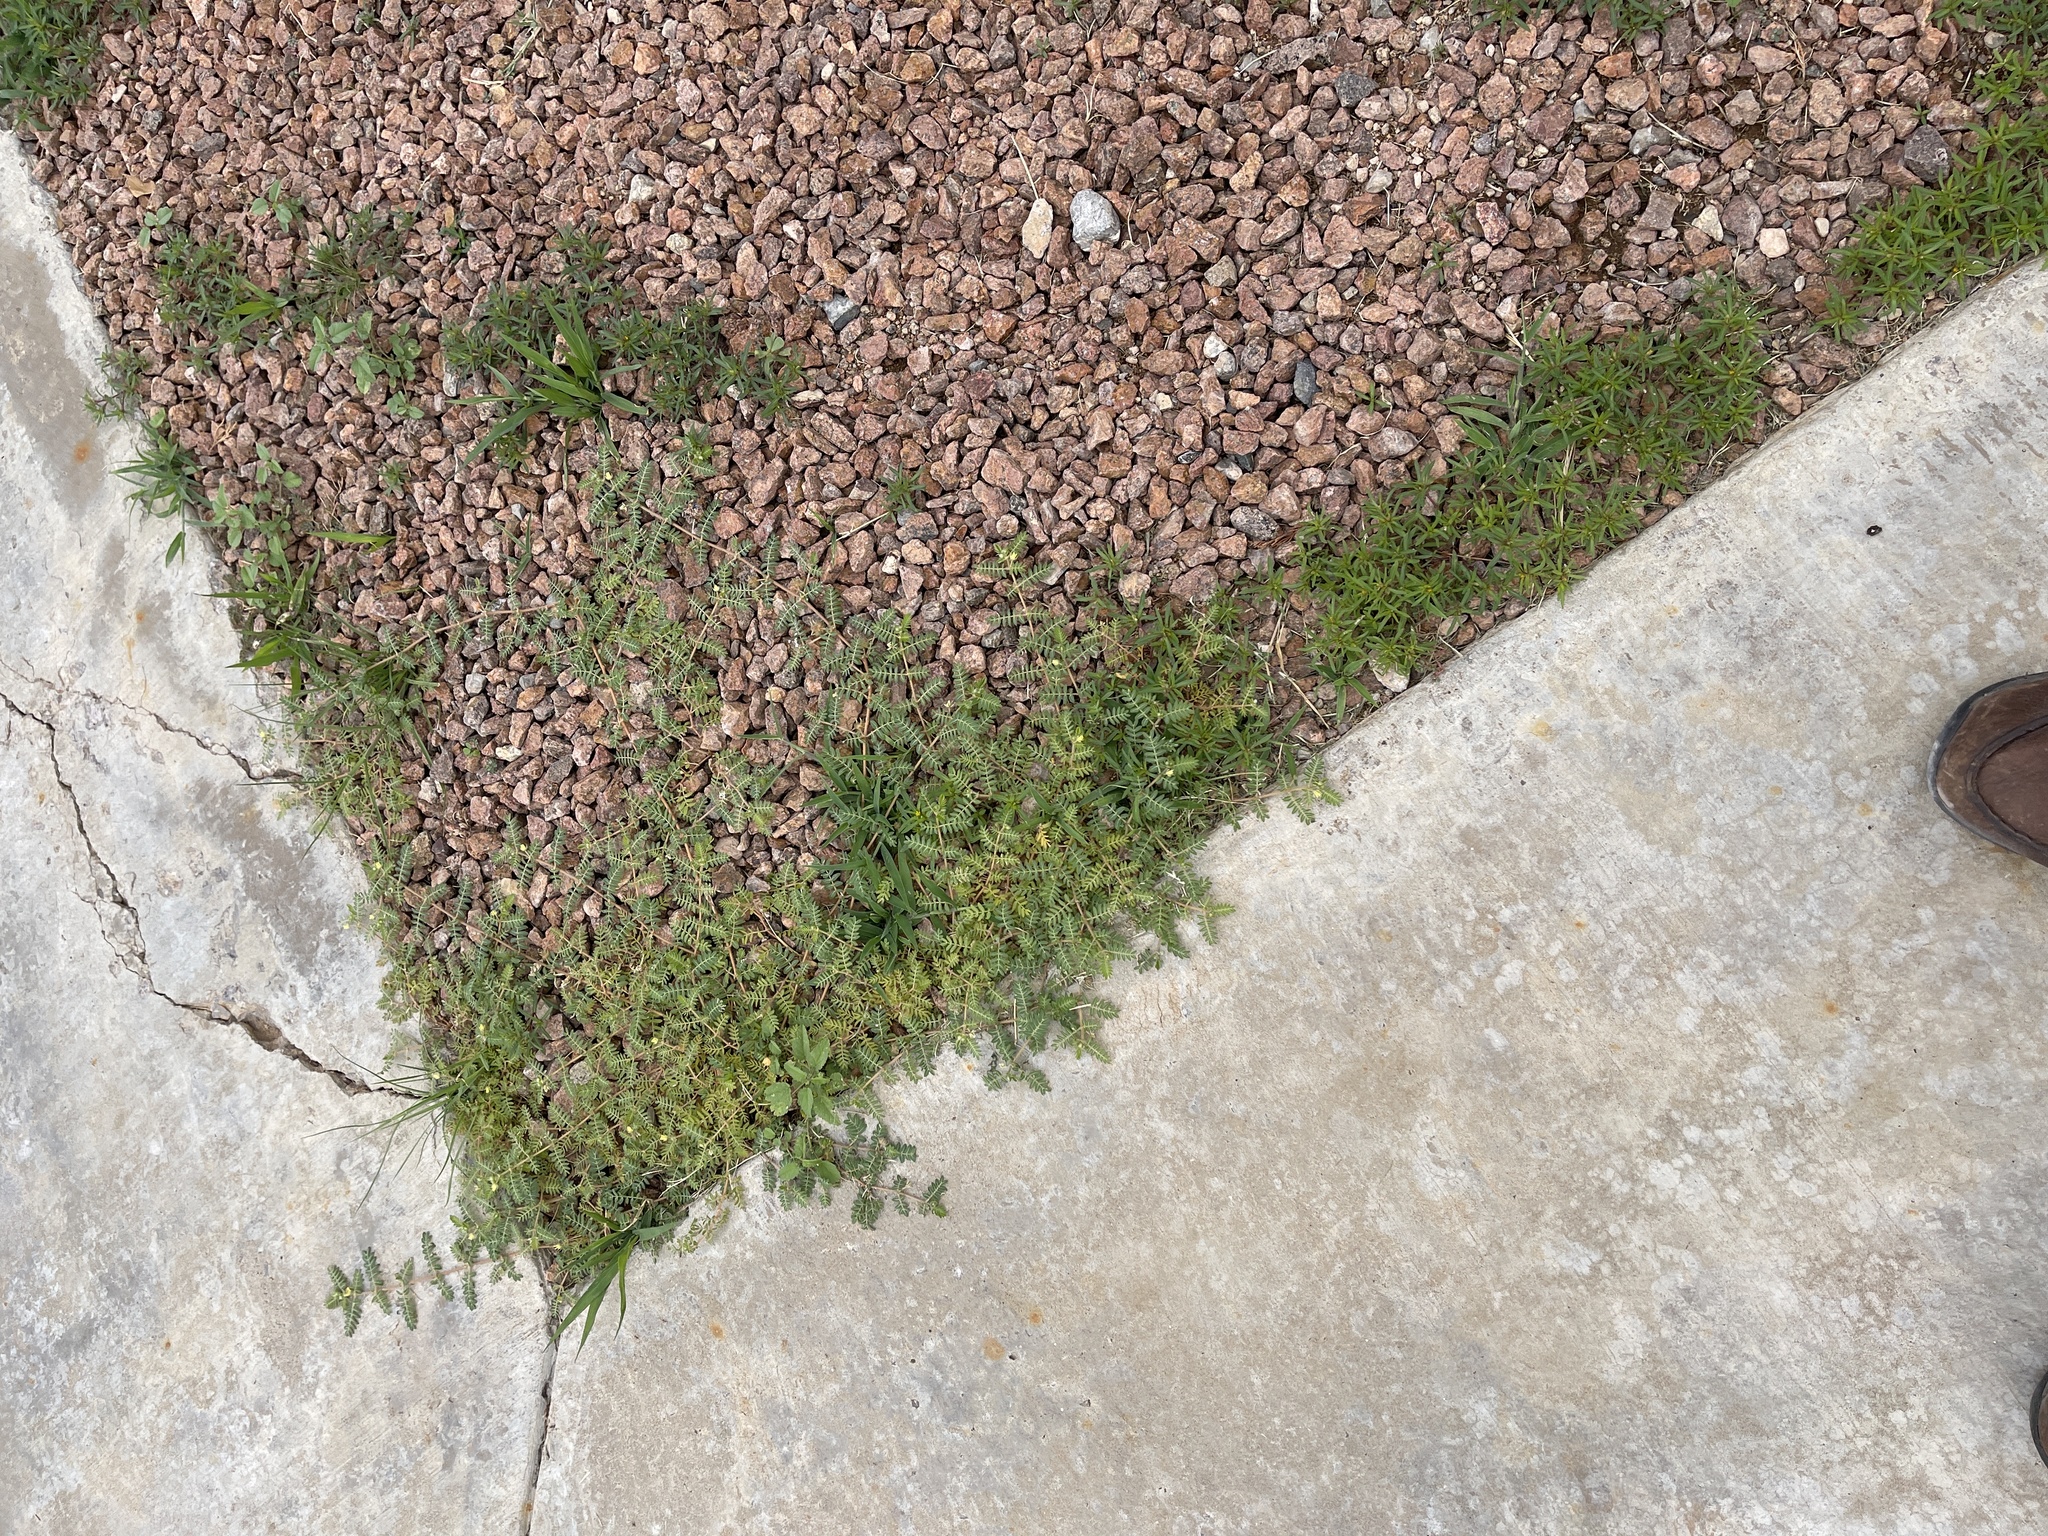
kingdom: Plantae
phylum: Tracheophyta
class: Magnoliopsida
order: Zygophyllales
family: Zygophyllaceae
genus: Tribulus
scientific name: Tribulus terrestris
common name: Puncturevine
